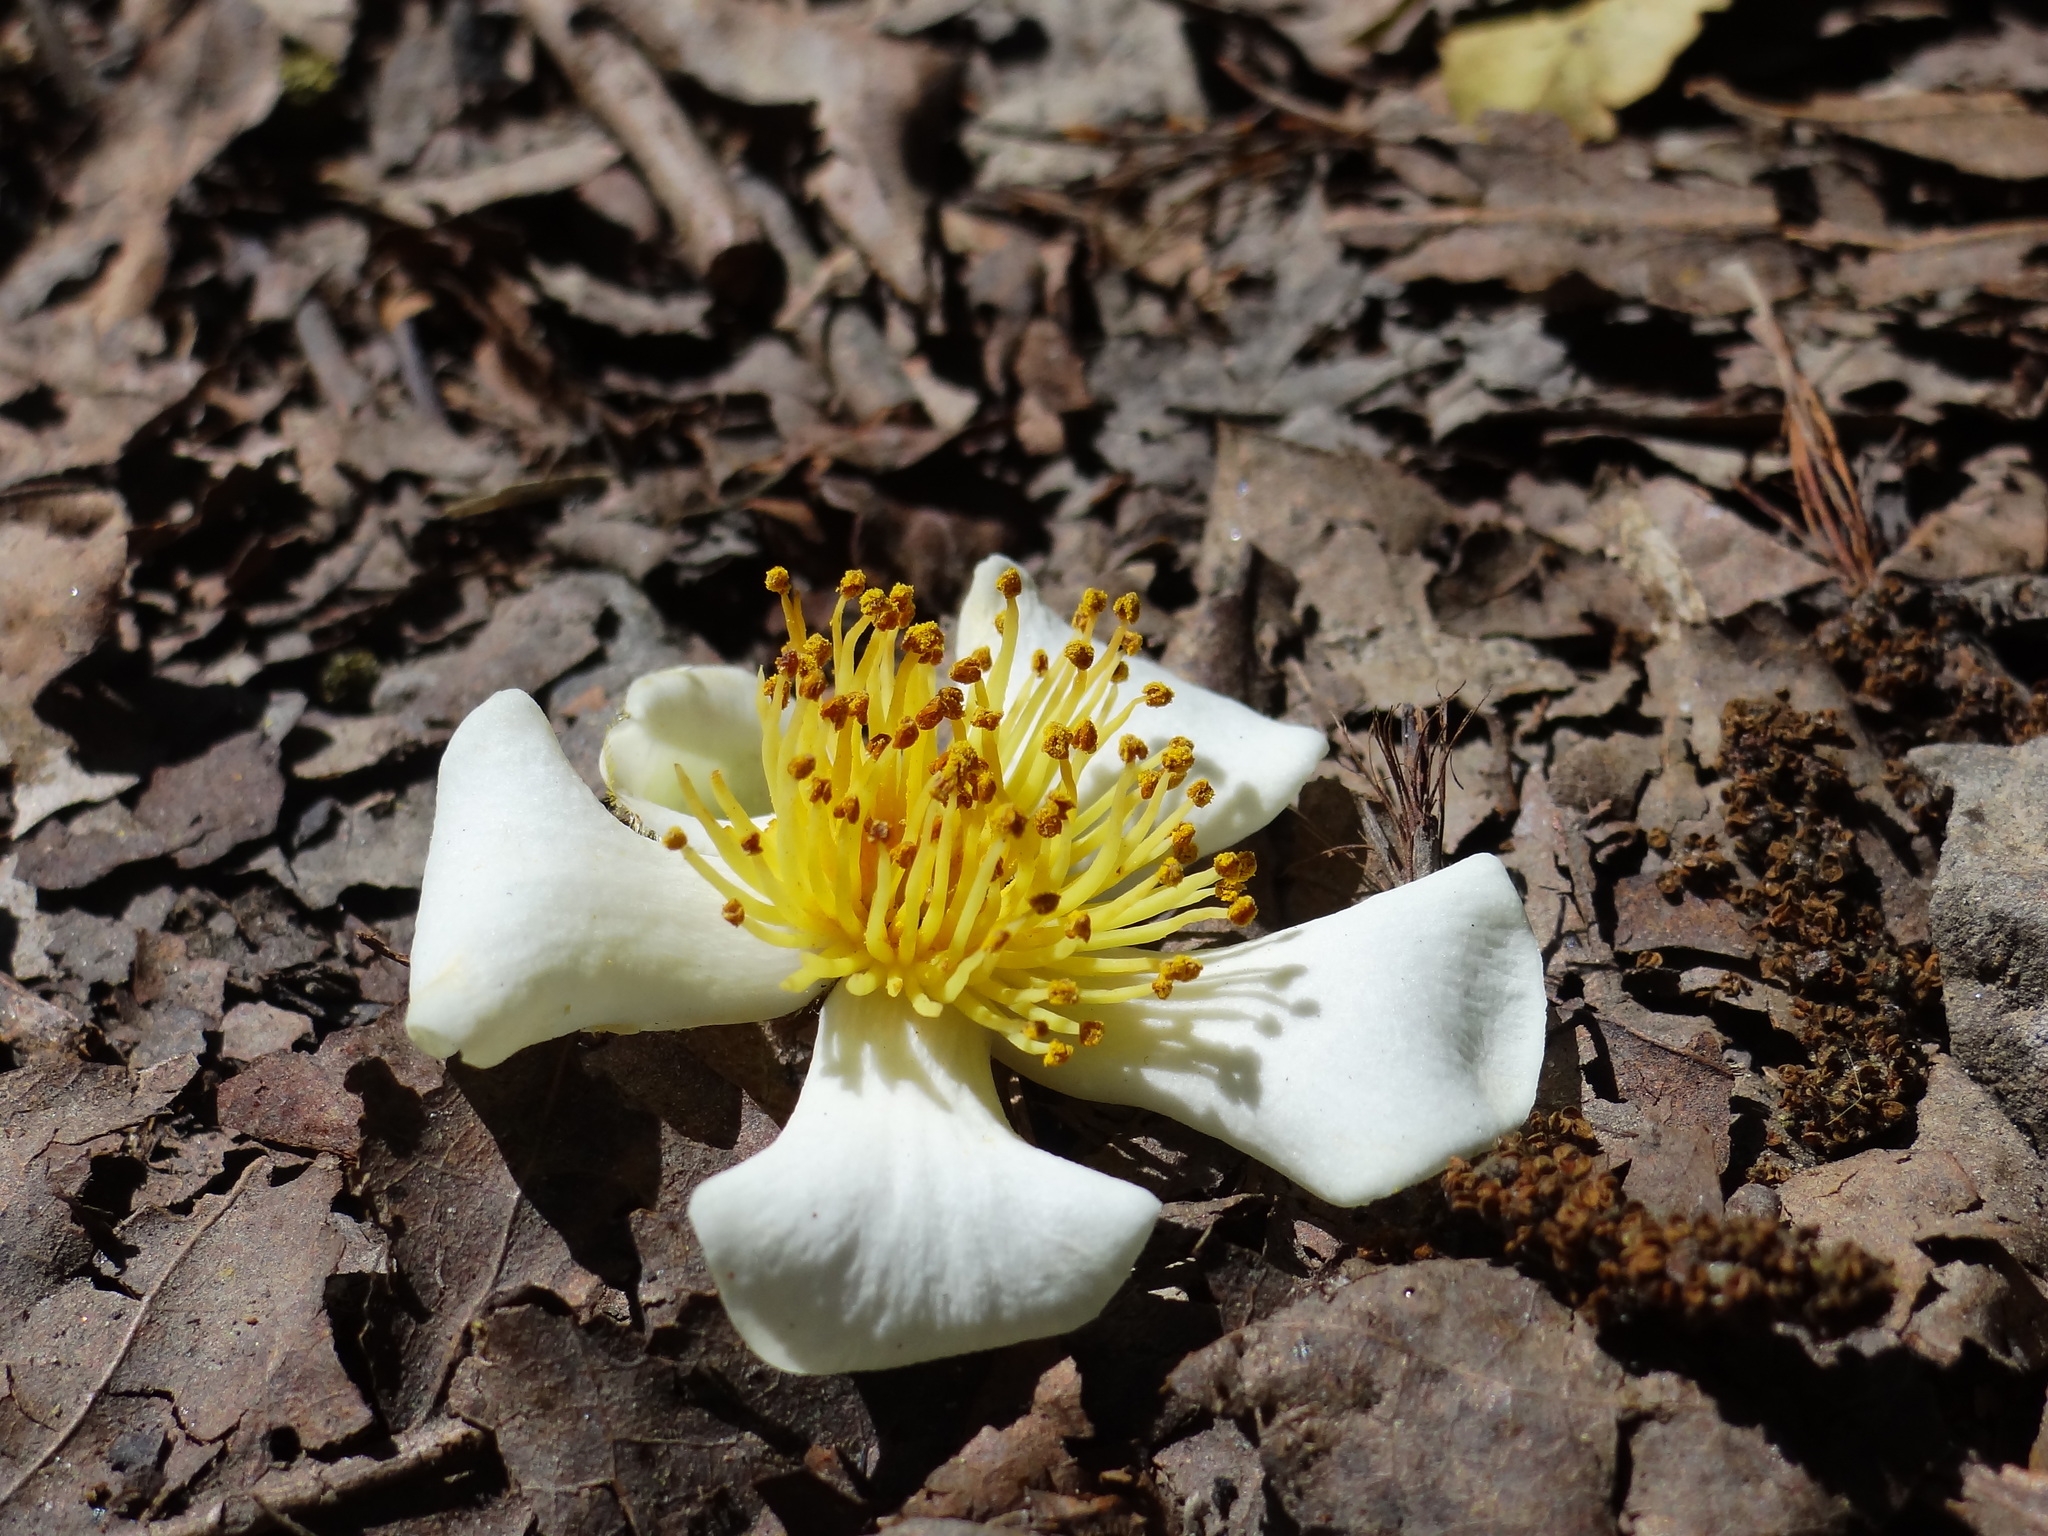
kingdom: Plantae
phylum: Tracheophyta
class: Magnoliopsida
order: Ericales
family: Theaceae
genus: Schima
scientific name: Schima superba
